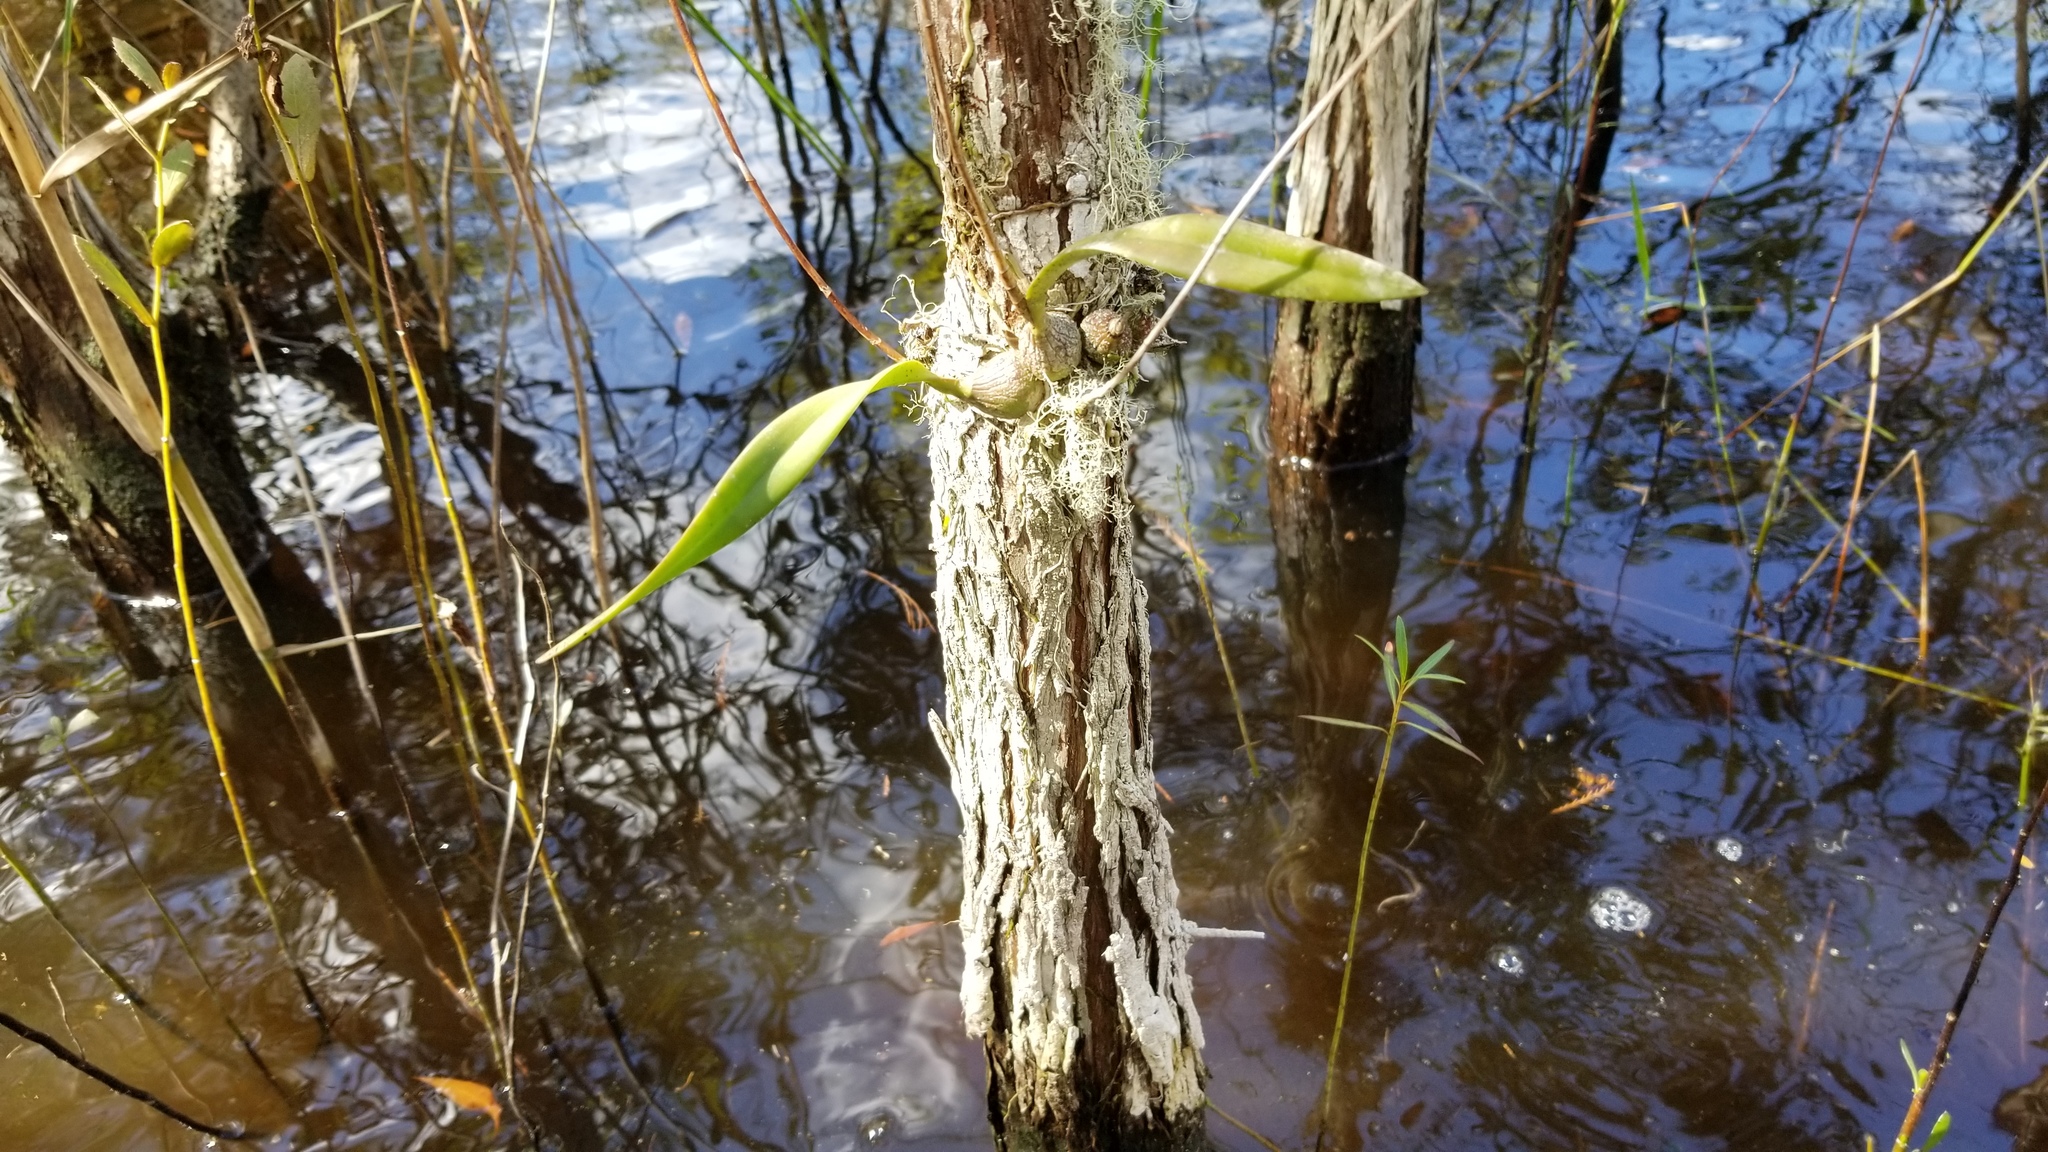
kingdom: Plantae
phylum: Tracheophyta
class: Liliopsida
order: Asparagales
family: Orchidaceae
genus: Encyclia
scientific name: Encyclia tampensis
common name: Florida butterfly orchid
